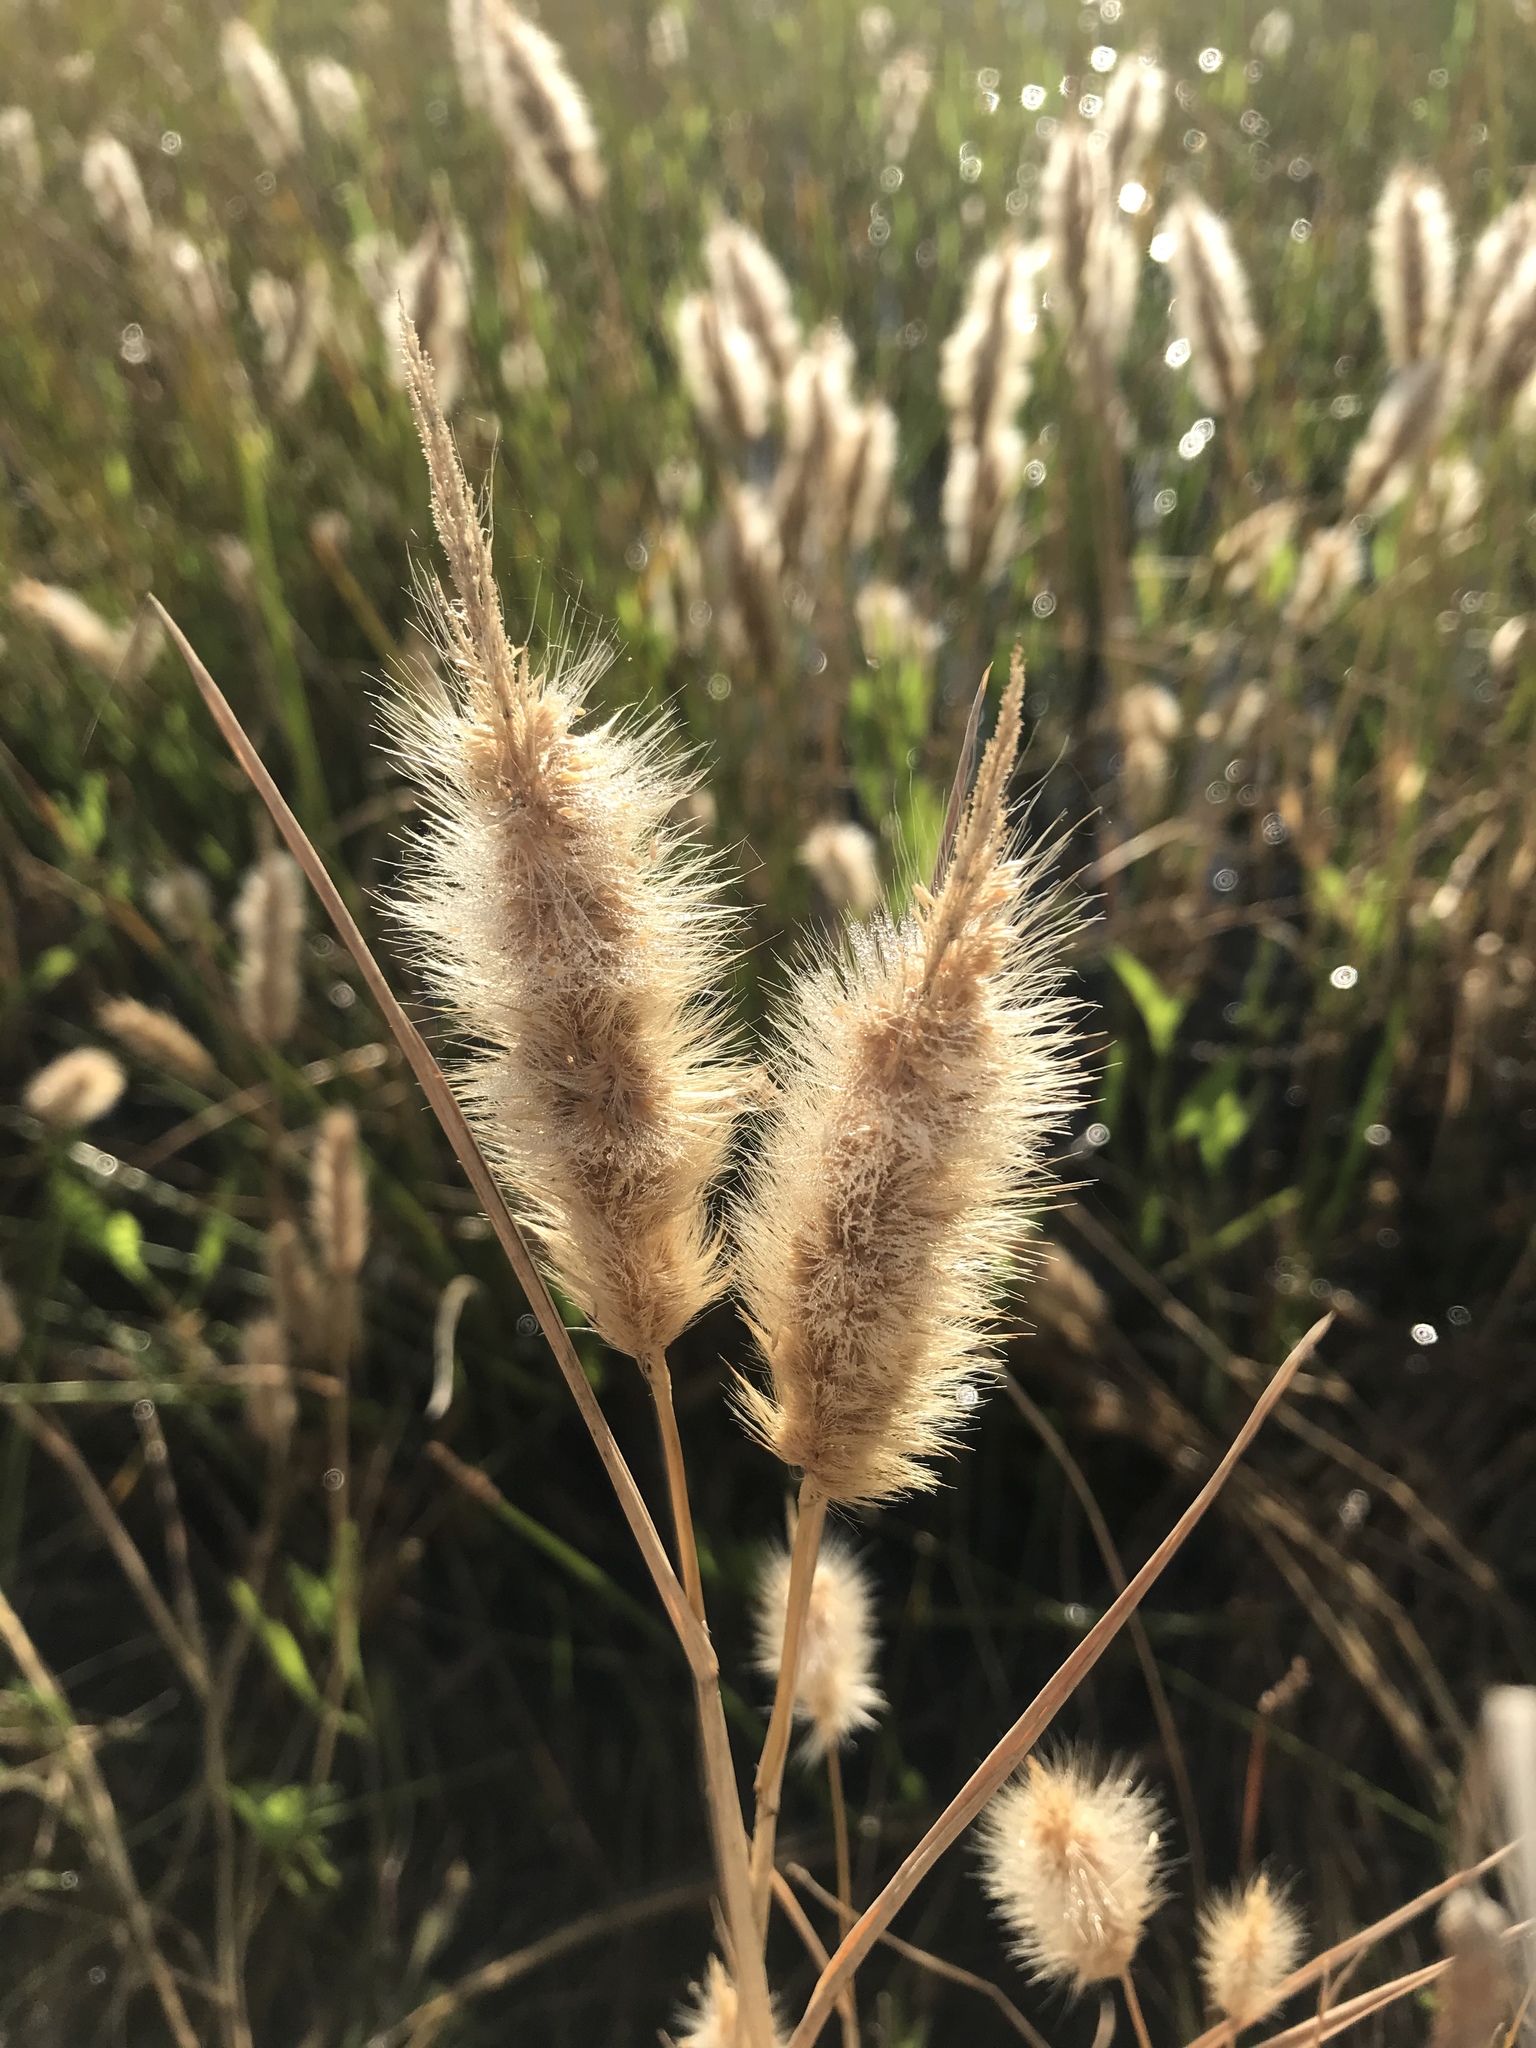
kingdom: Plantae
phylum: Tracheophyta
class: Liliopsida
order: Poales
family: Poaceae
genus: Polypogon
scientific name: Polypogon monspeliensis
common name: Annual rabbitsfoot grass
